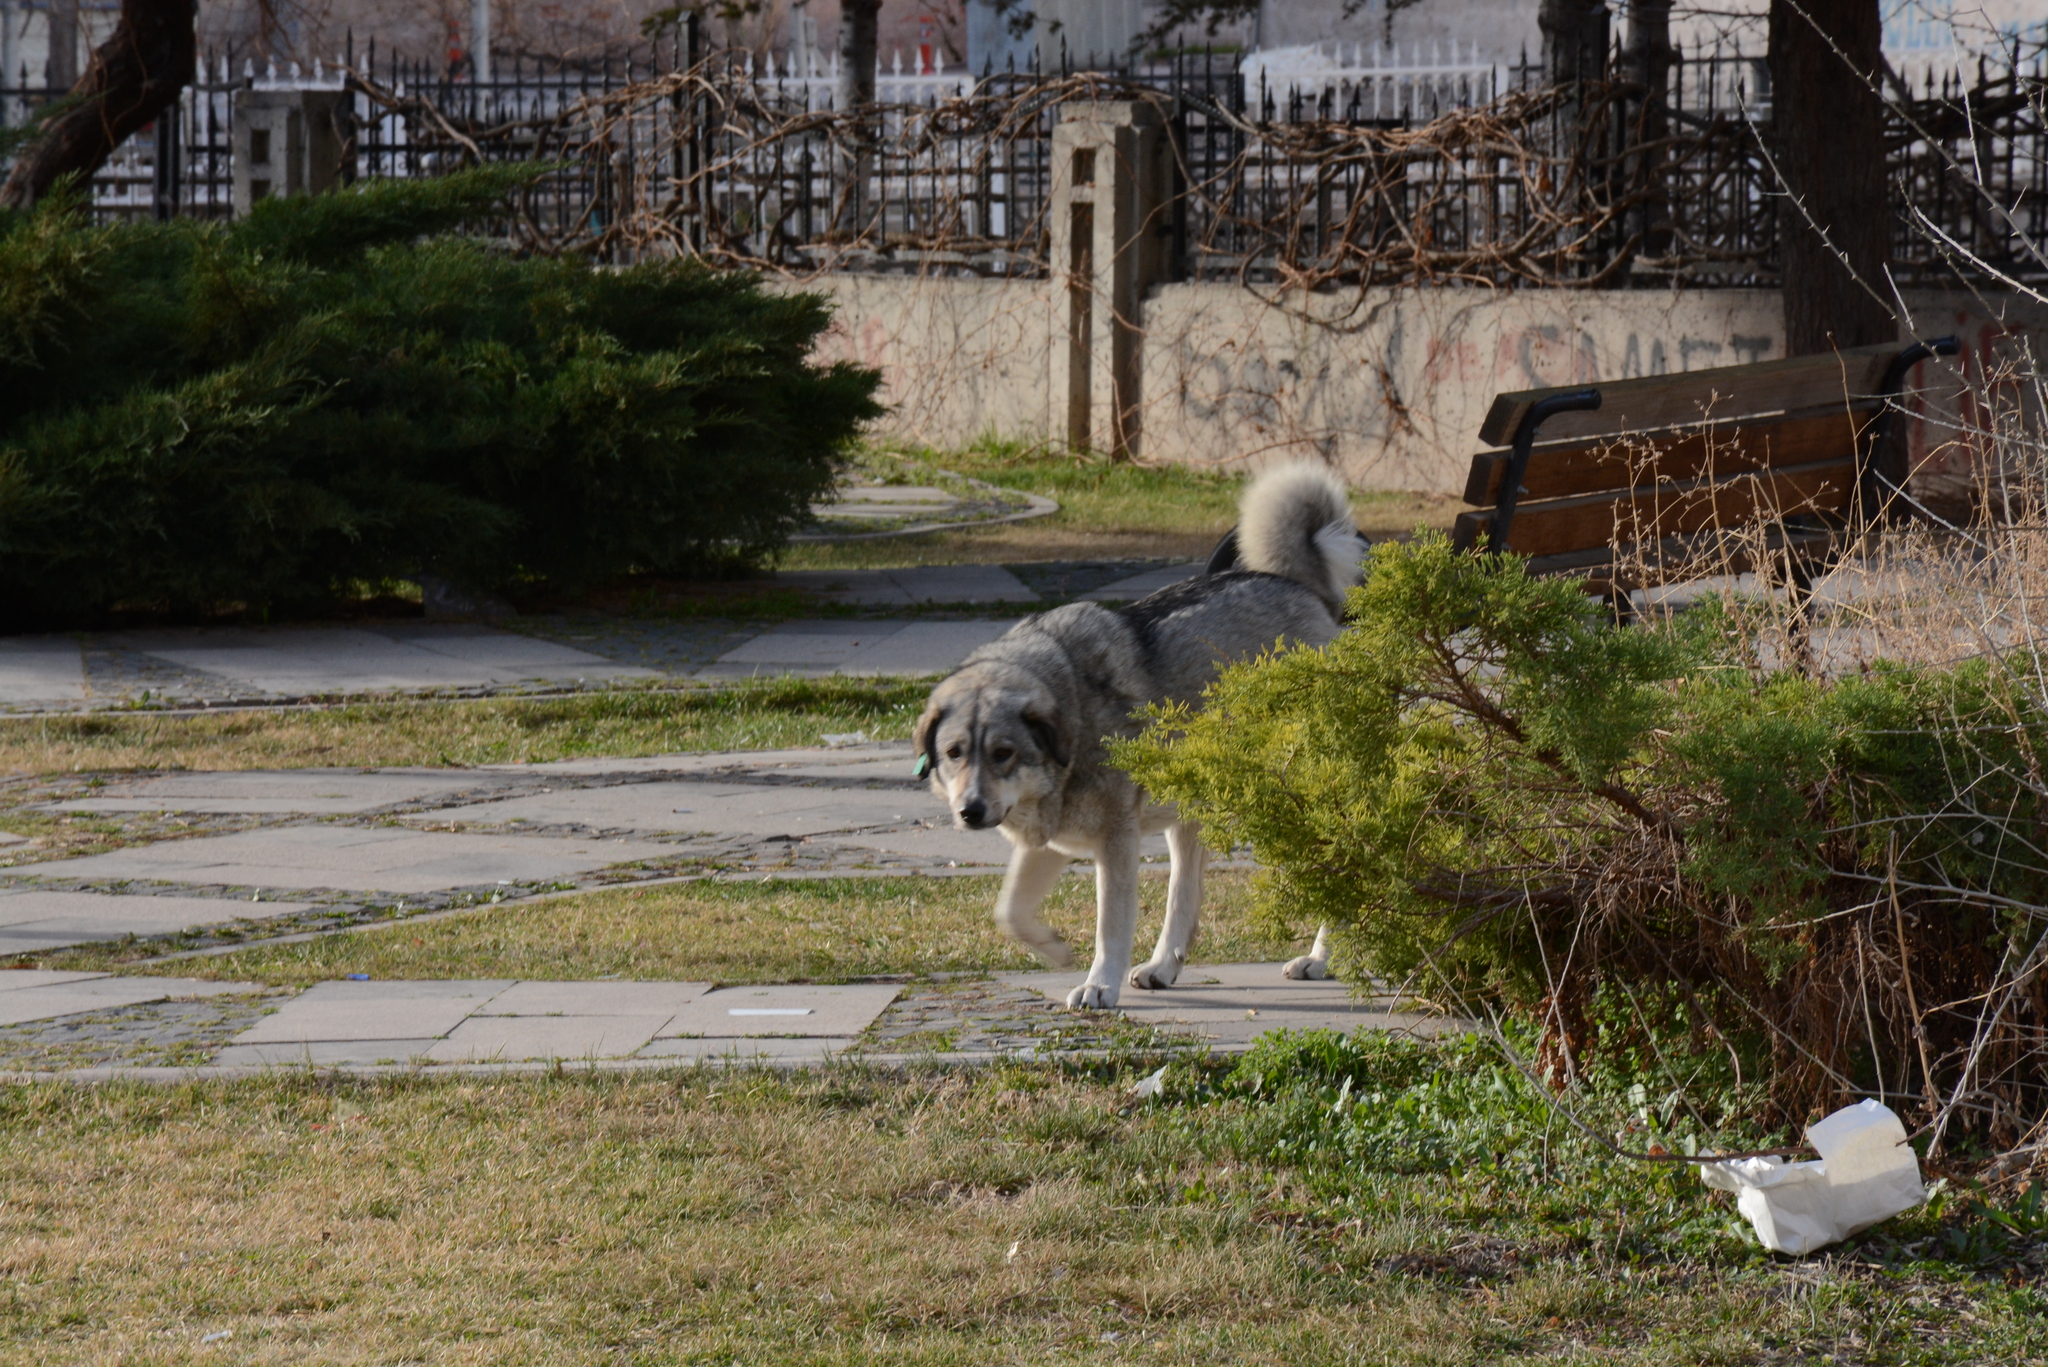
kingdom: Animalia
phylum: Chordata
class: Mammalia
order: Carnivora
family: Canidae
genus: Canis
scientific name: Canis lupus
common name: Gray wolf
